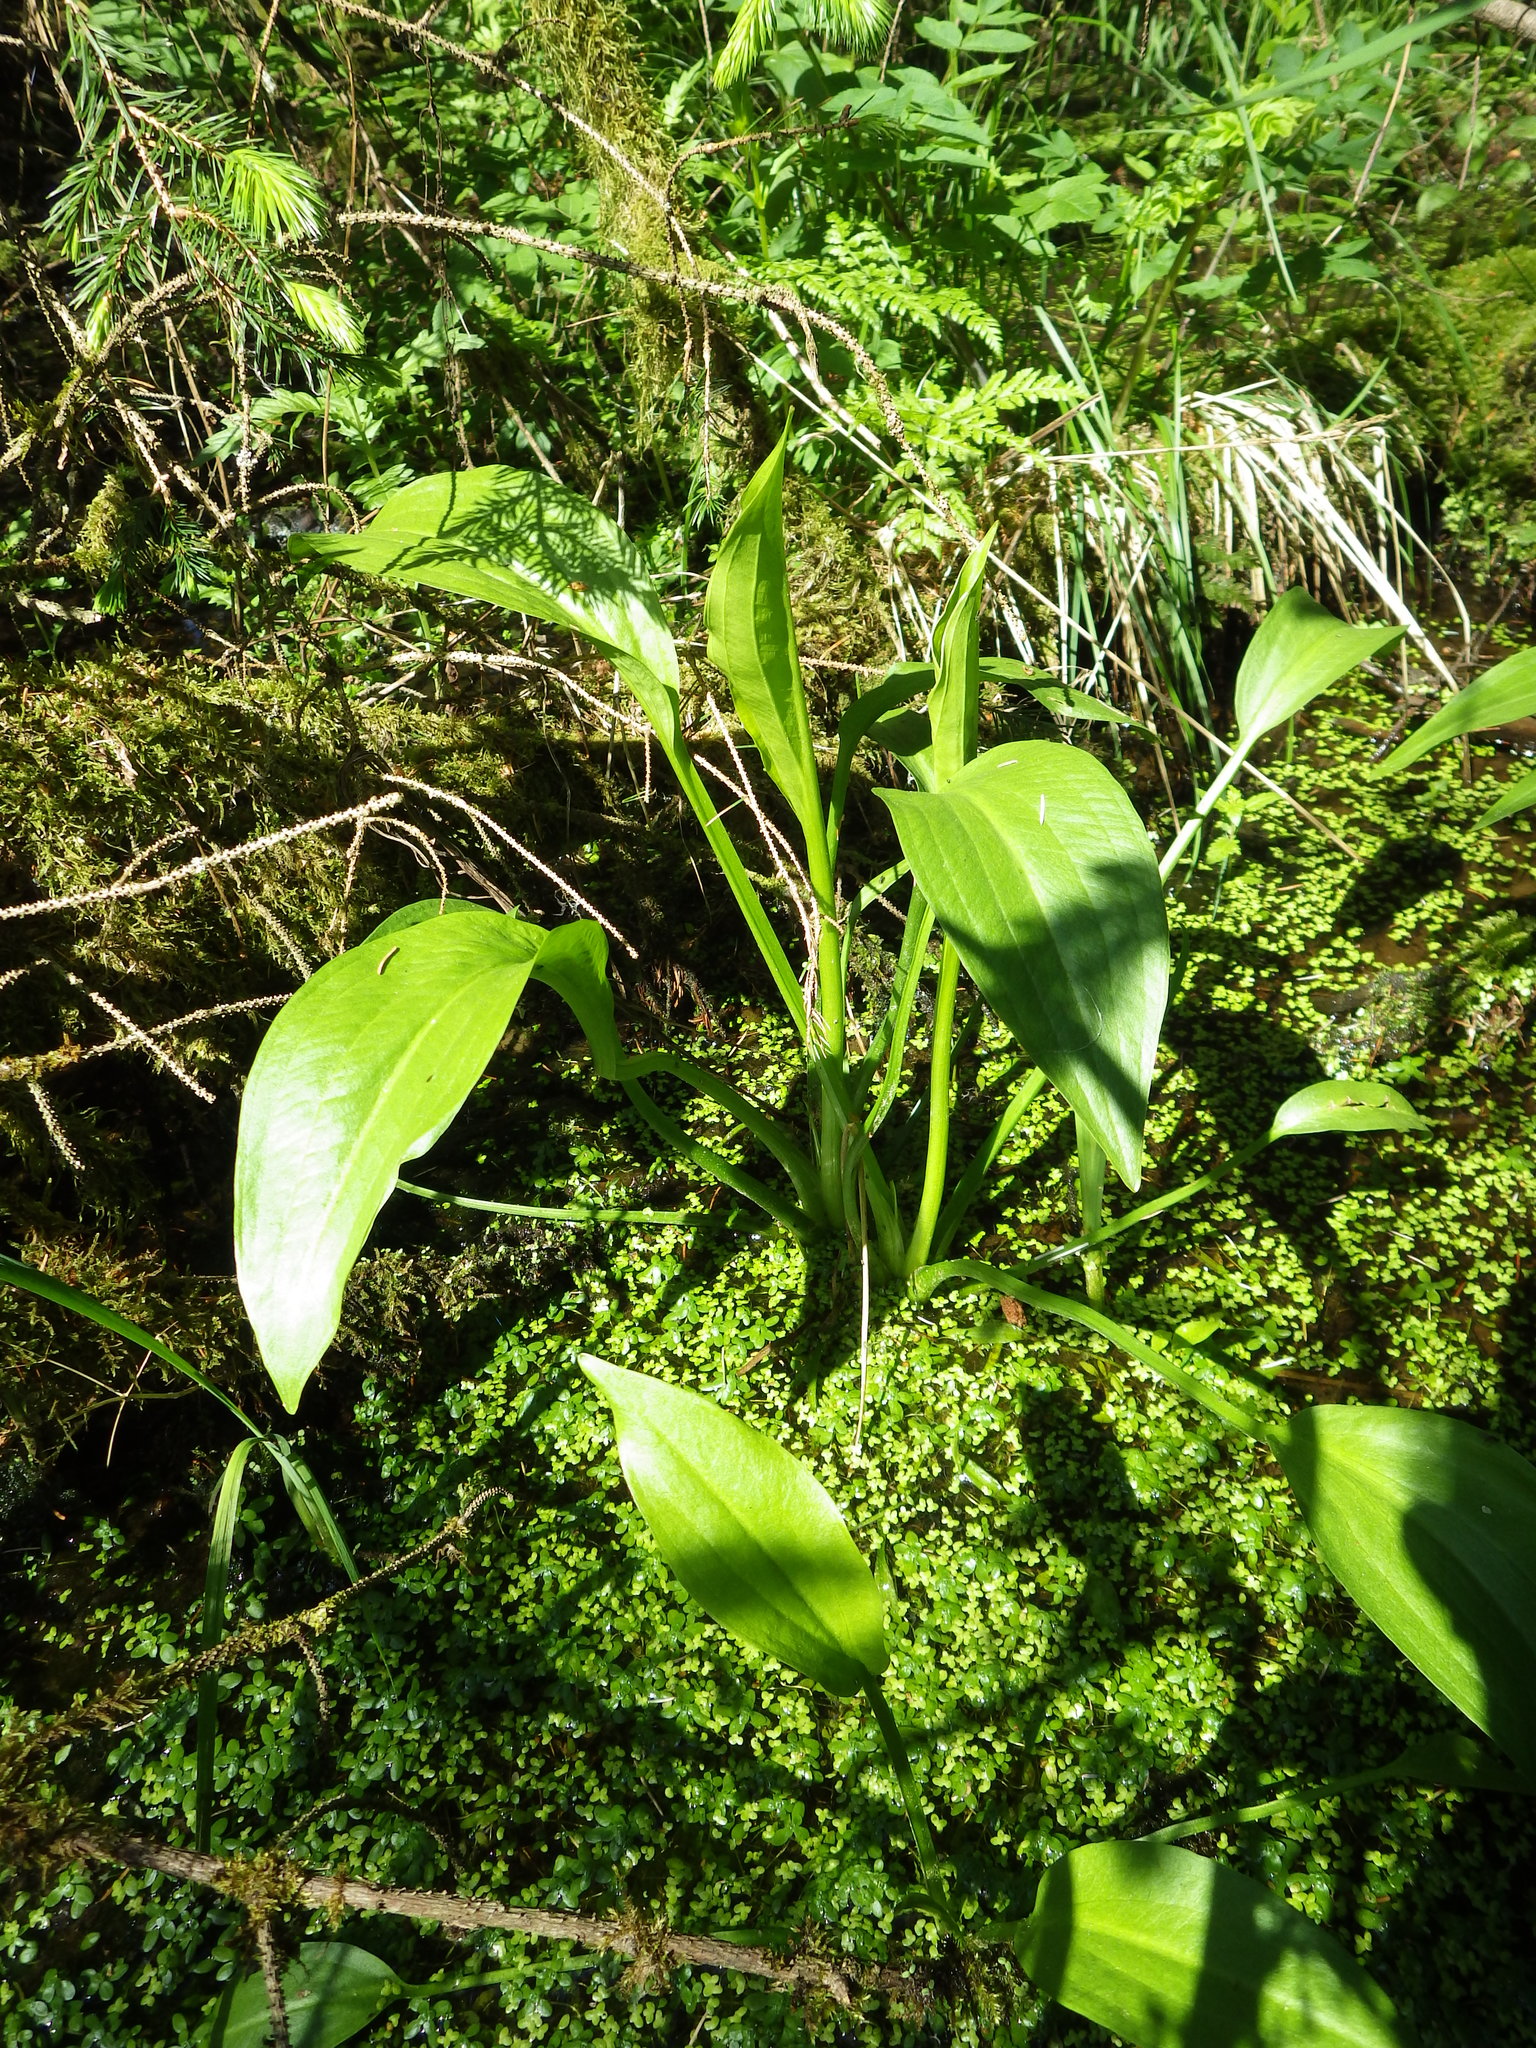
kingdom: Plantae
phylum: Tracheophyta
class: Liliopsida
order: Alismatales
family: Alismataceae
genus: Alisma
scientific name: Alisma plantago-aquatica
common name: Water-plantain
